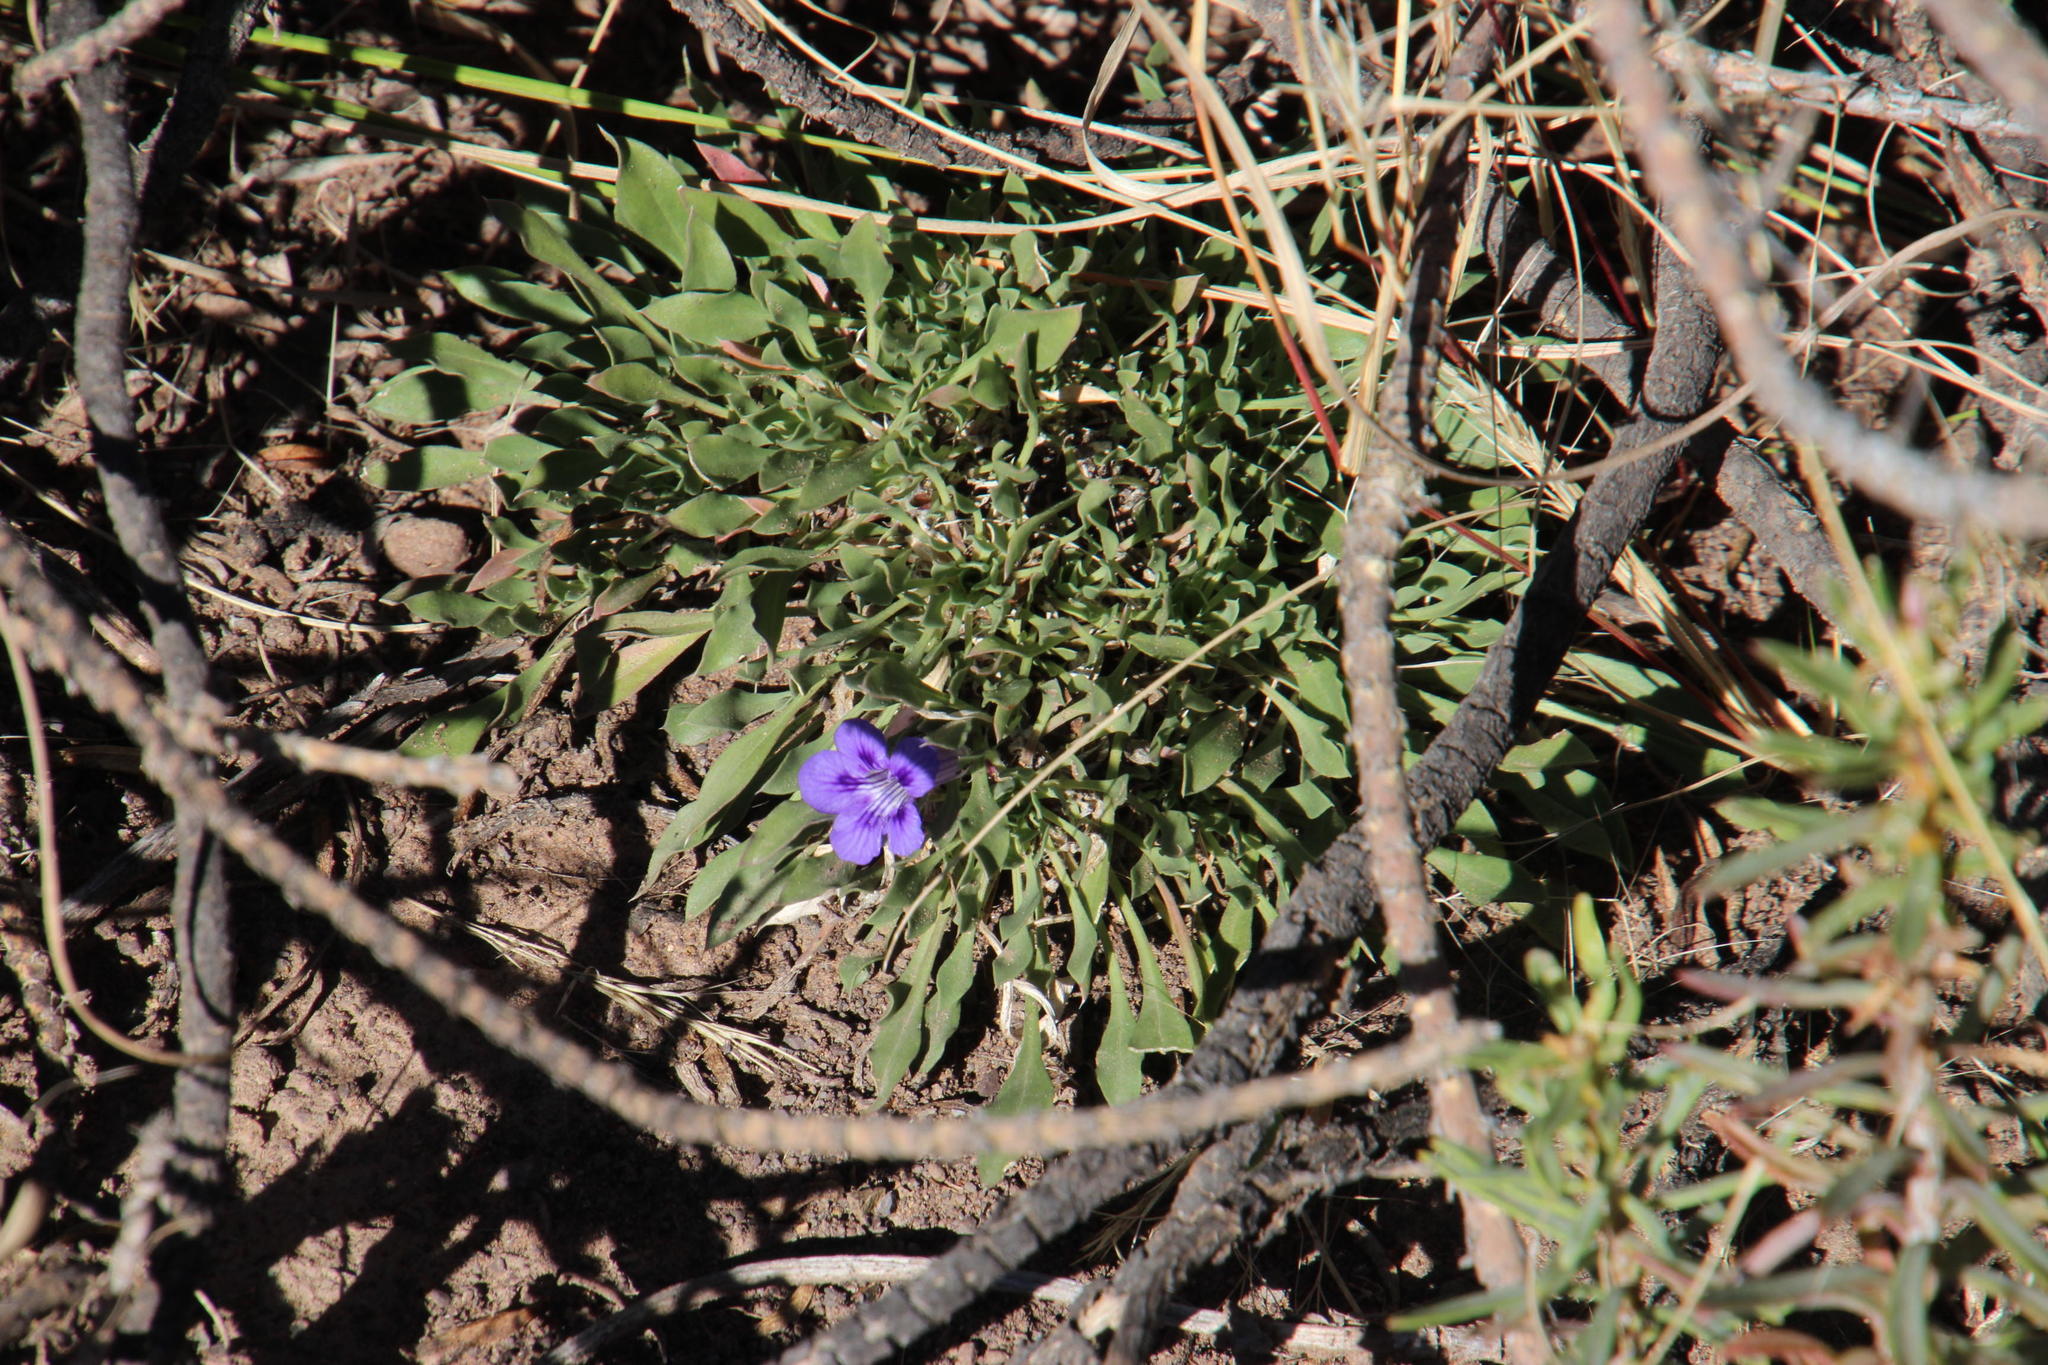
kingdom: Plantae
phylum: Tracheophyta
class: Magnoliopsida
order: Lamiales
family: Scrophulariaceae
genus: Aptosimum
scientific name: Aptosimum indivisum
